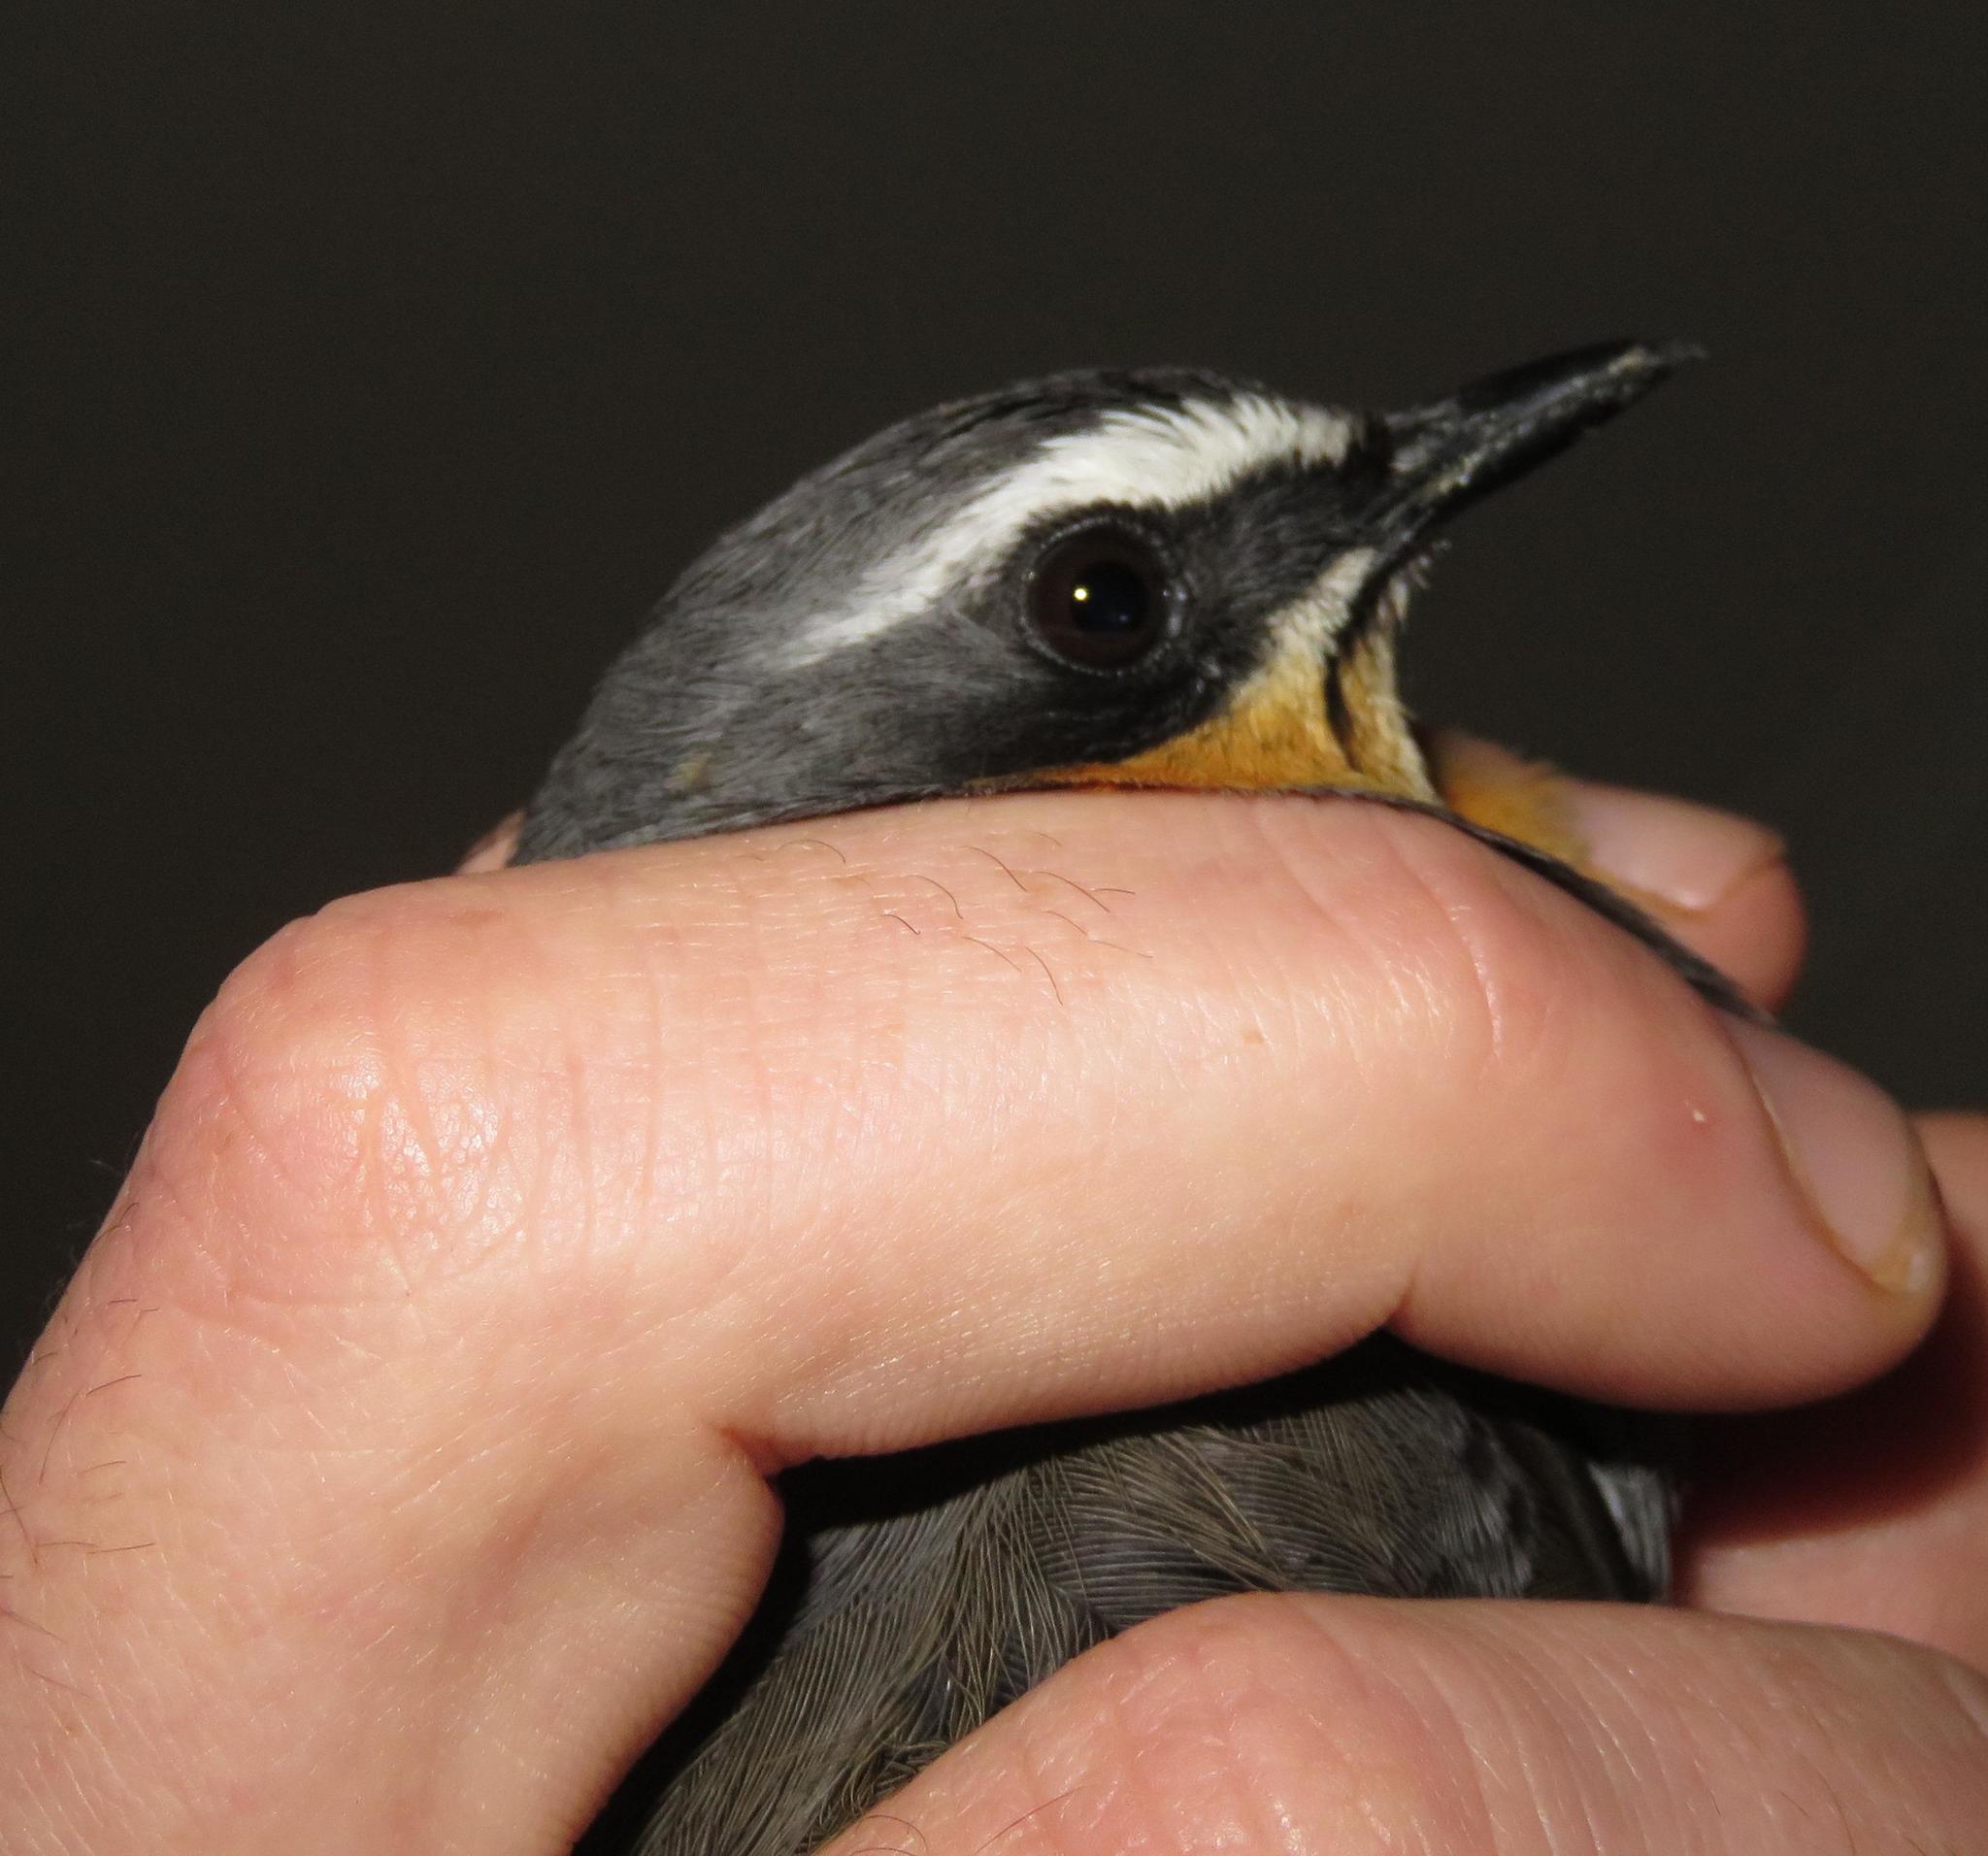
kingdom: Animalia
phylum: Chordata
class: Aves
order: Passeriformes
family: Muscicapidae
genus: Cossypha
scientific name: Cossypha caffra
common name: Cape robin-chat
